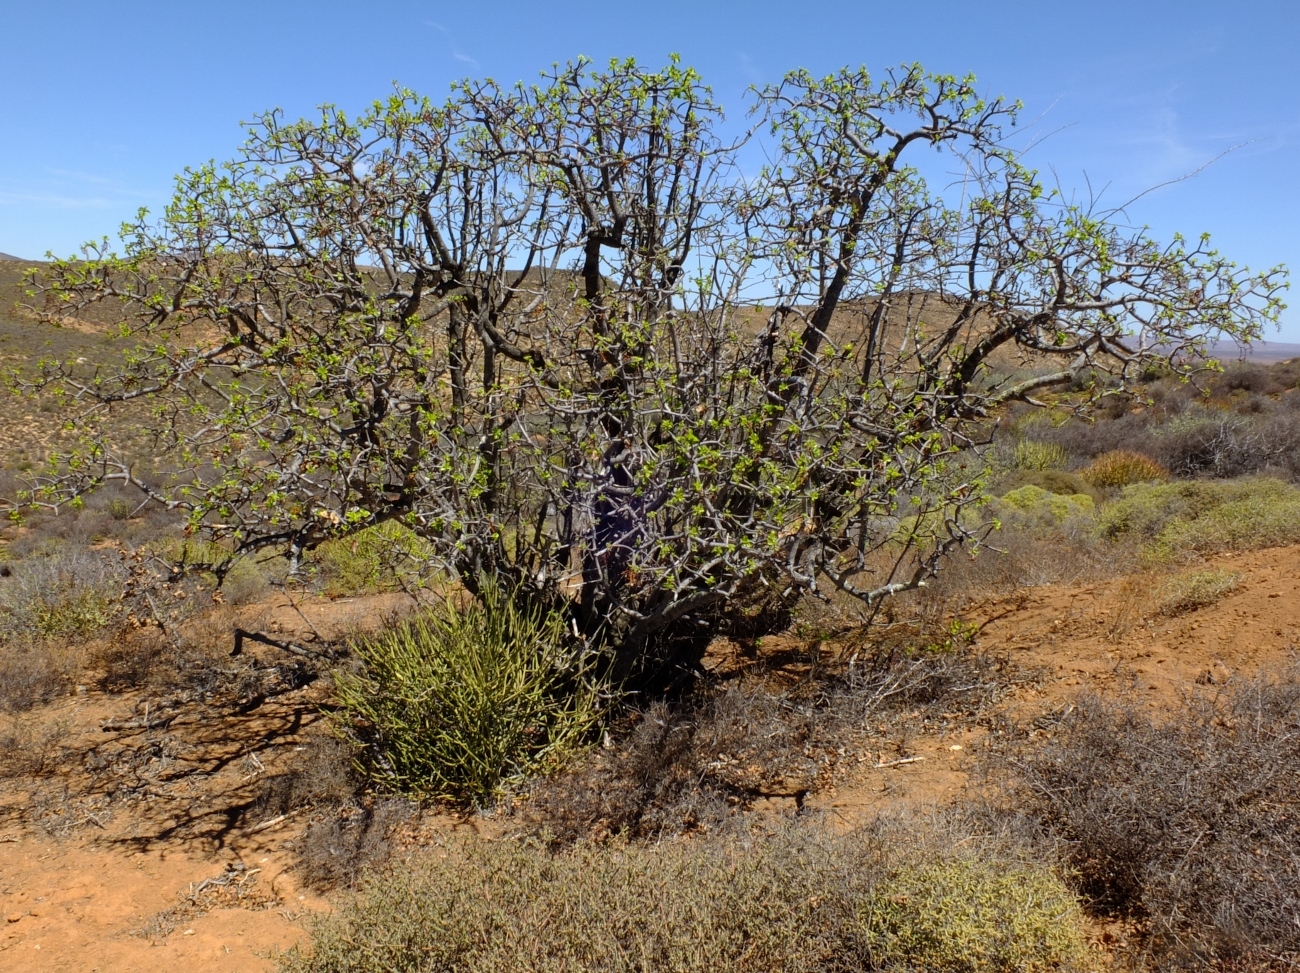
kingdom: Plantae
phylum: Tracheophyta
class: Magnoliopsida
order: Sapindales
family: Anacardiaceae
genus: Ozoroa
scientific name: Ozoroa dispar
